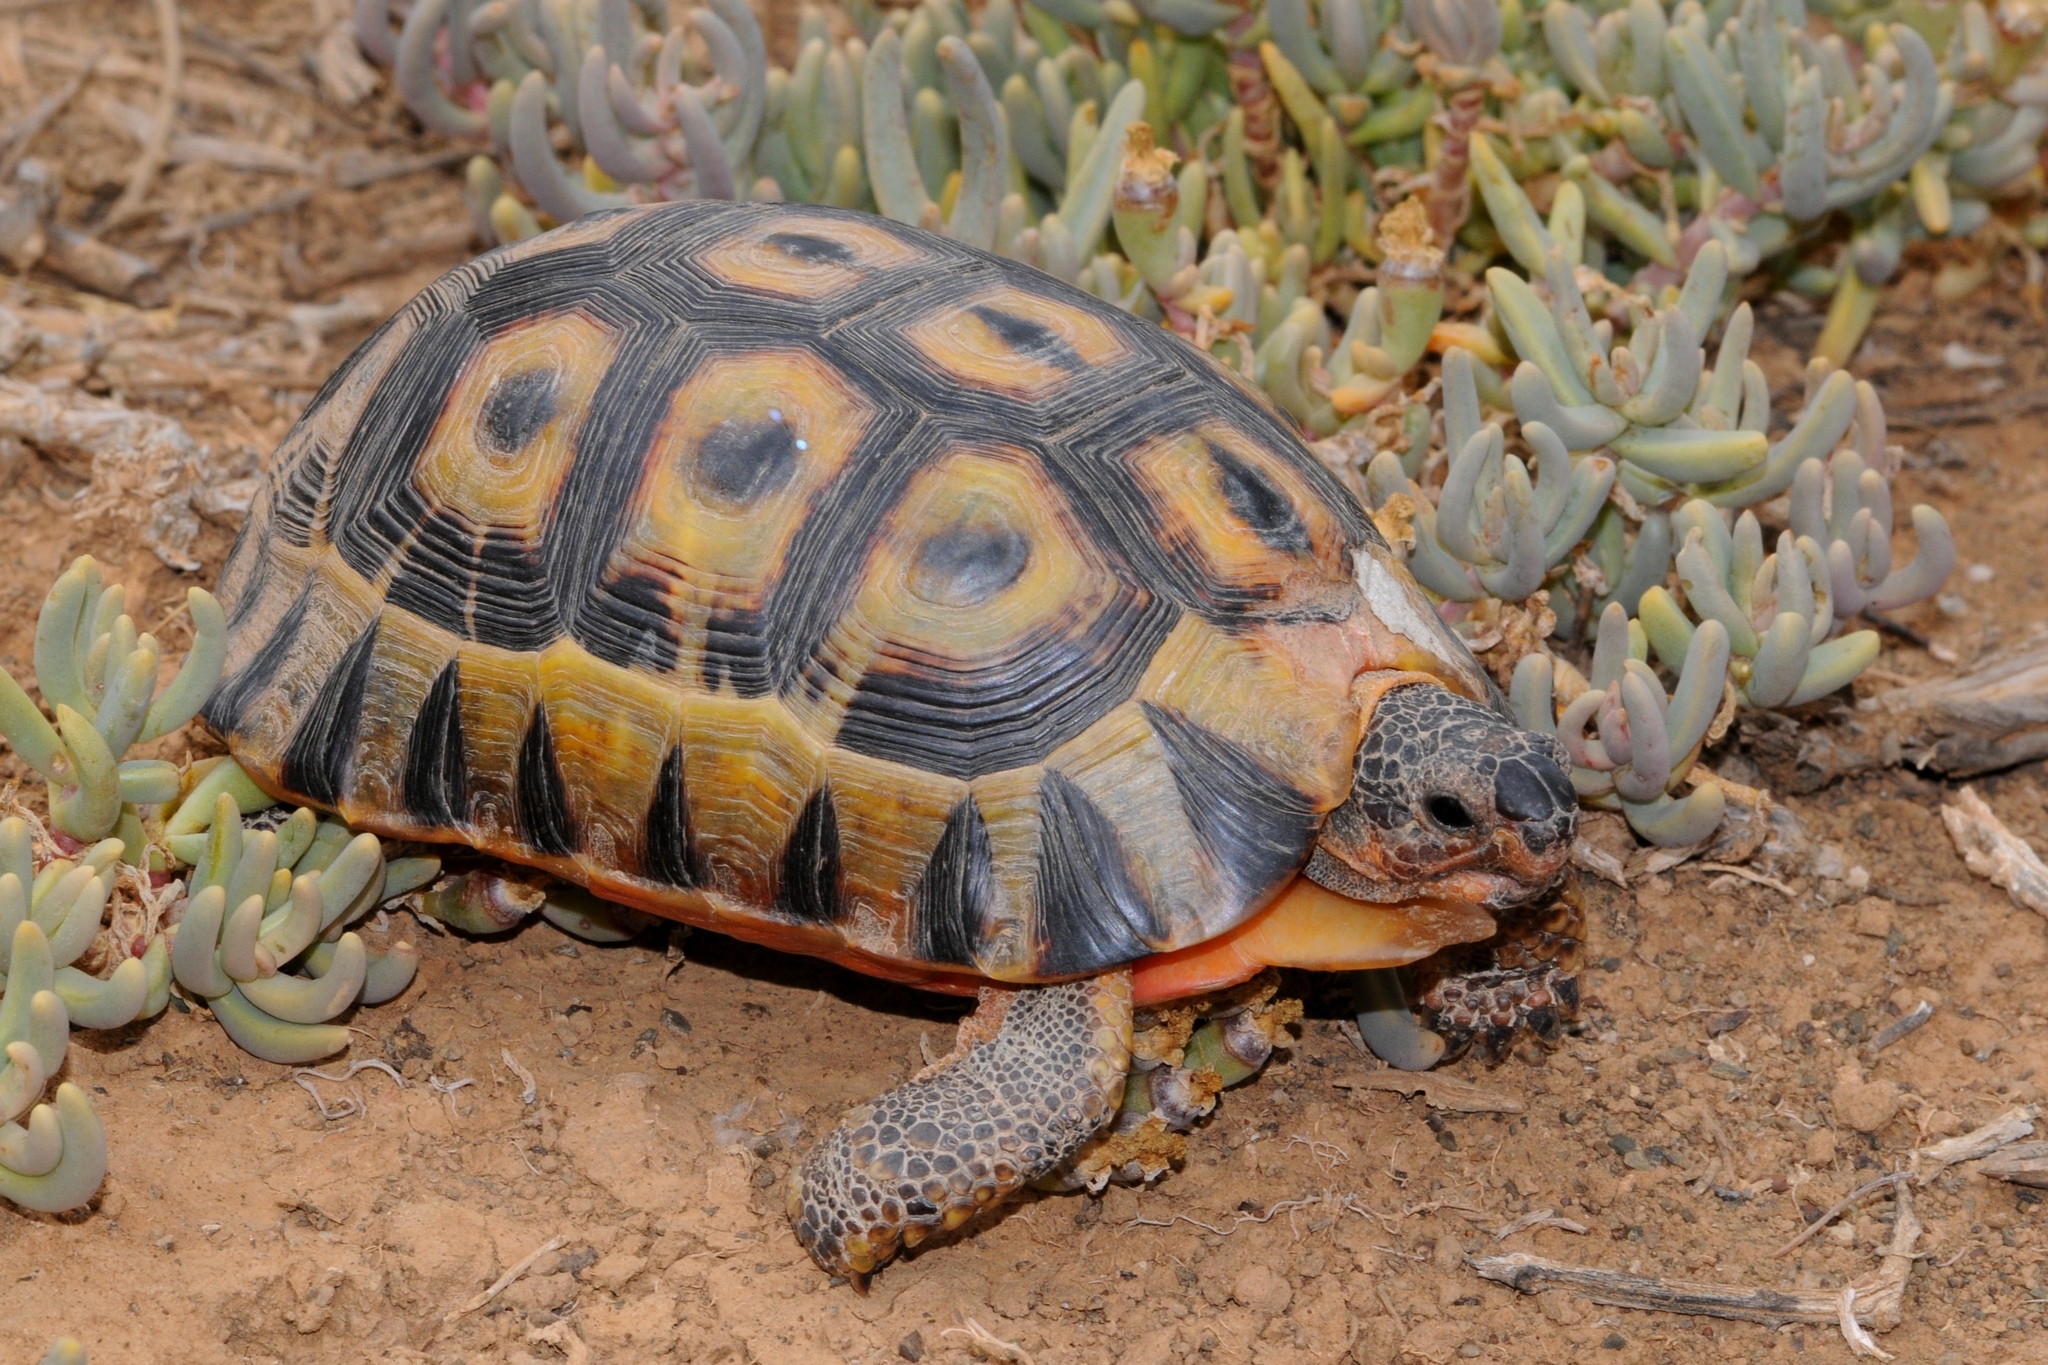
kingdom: Animalia
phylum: Chordata
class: Testudines
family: Testudinidae
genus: Chersina
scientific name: Chersina angulata
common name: South african bowsprit tortoise
